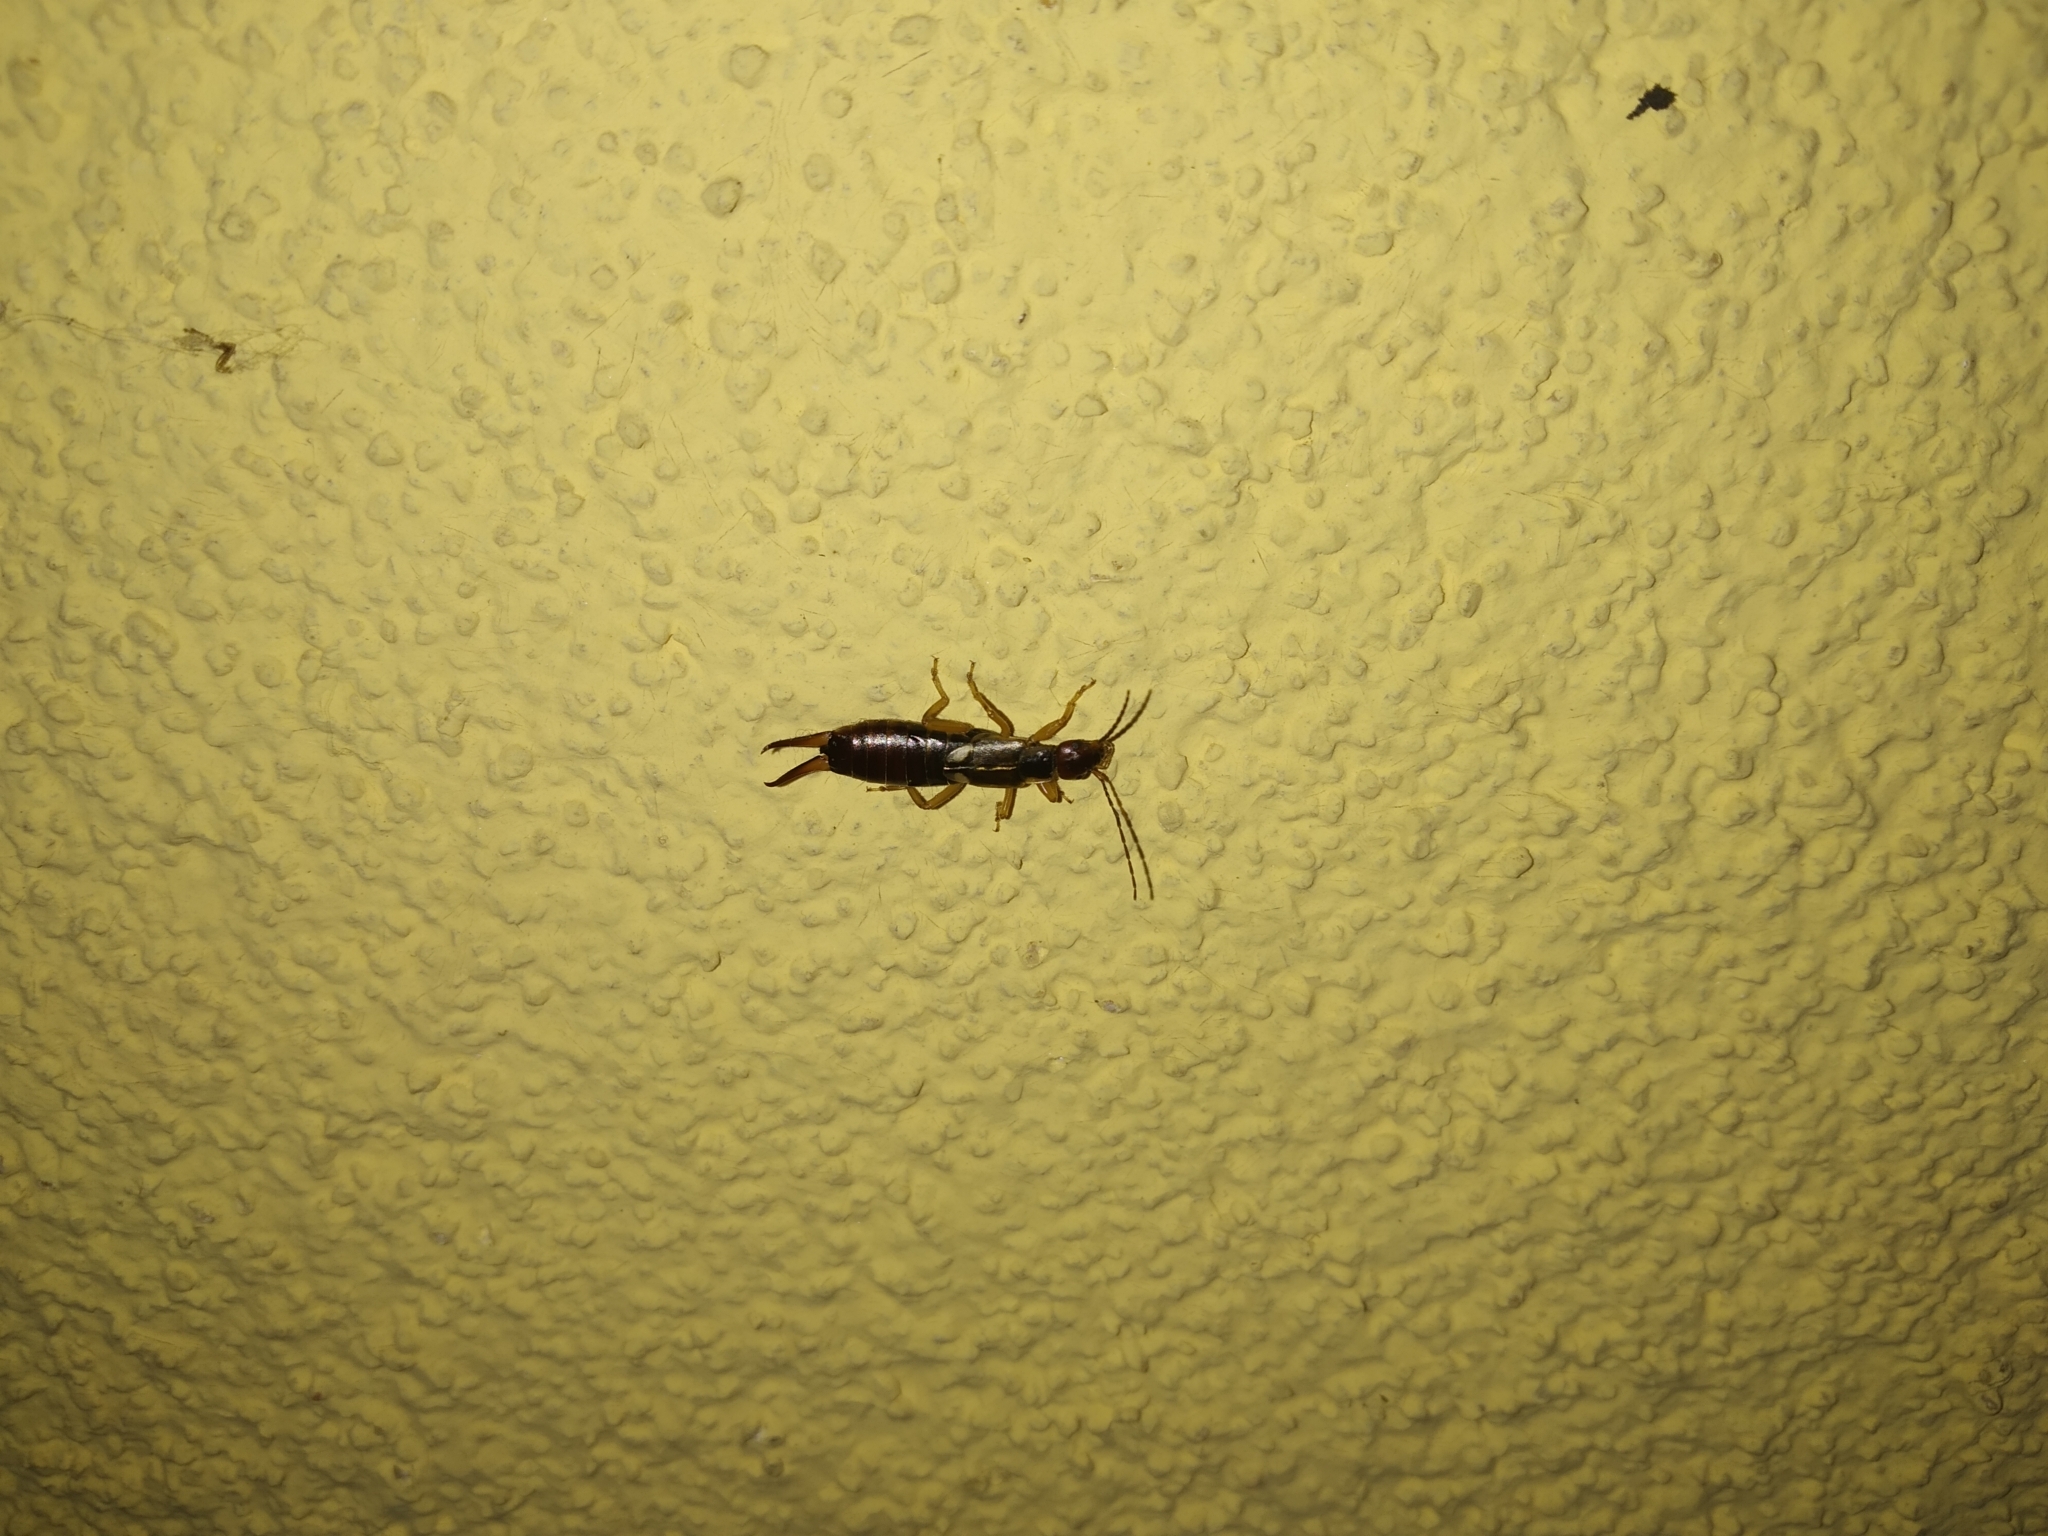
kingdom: Animalia
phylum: Arthropoda
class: Insecta
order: Dermaptera
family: Forficulidae
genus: Forficula
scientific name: Forficula
